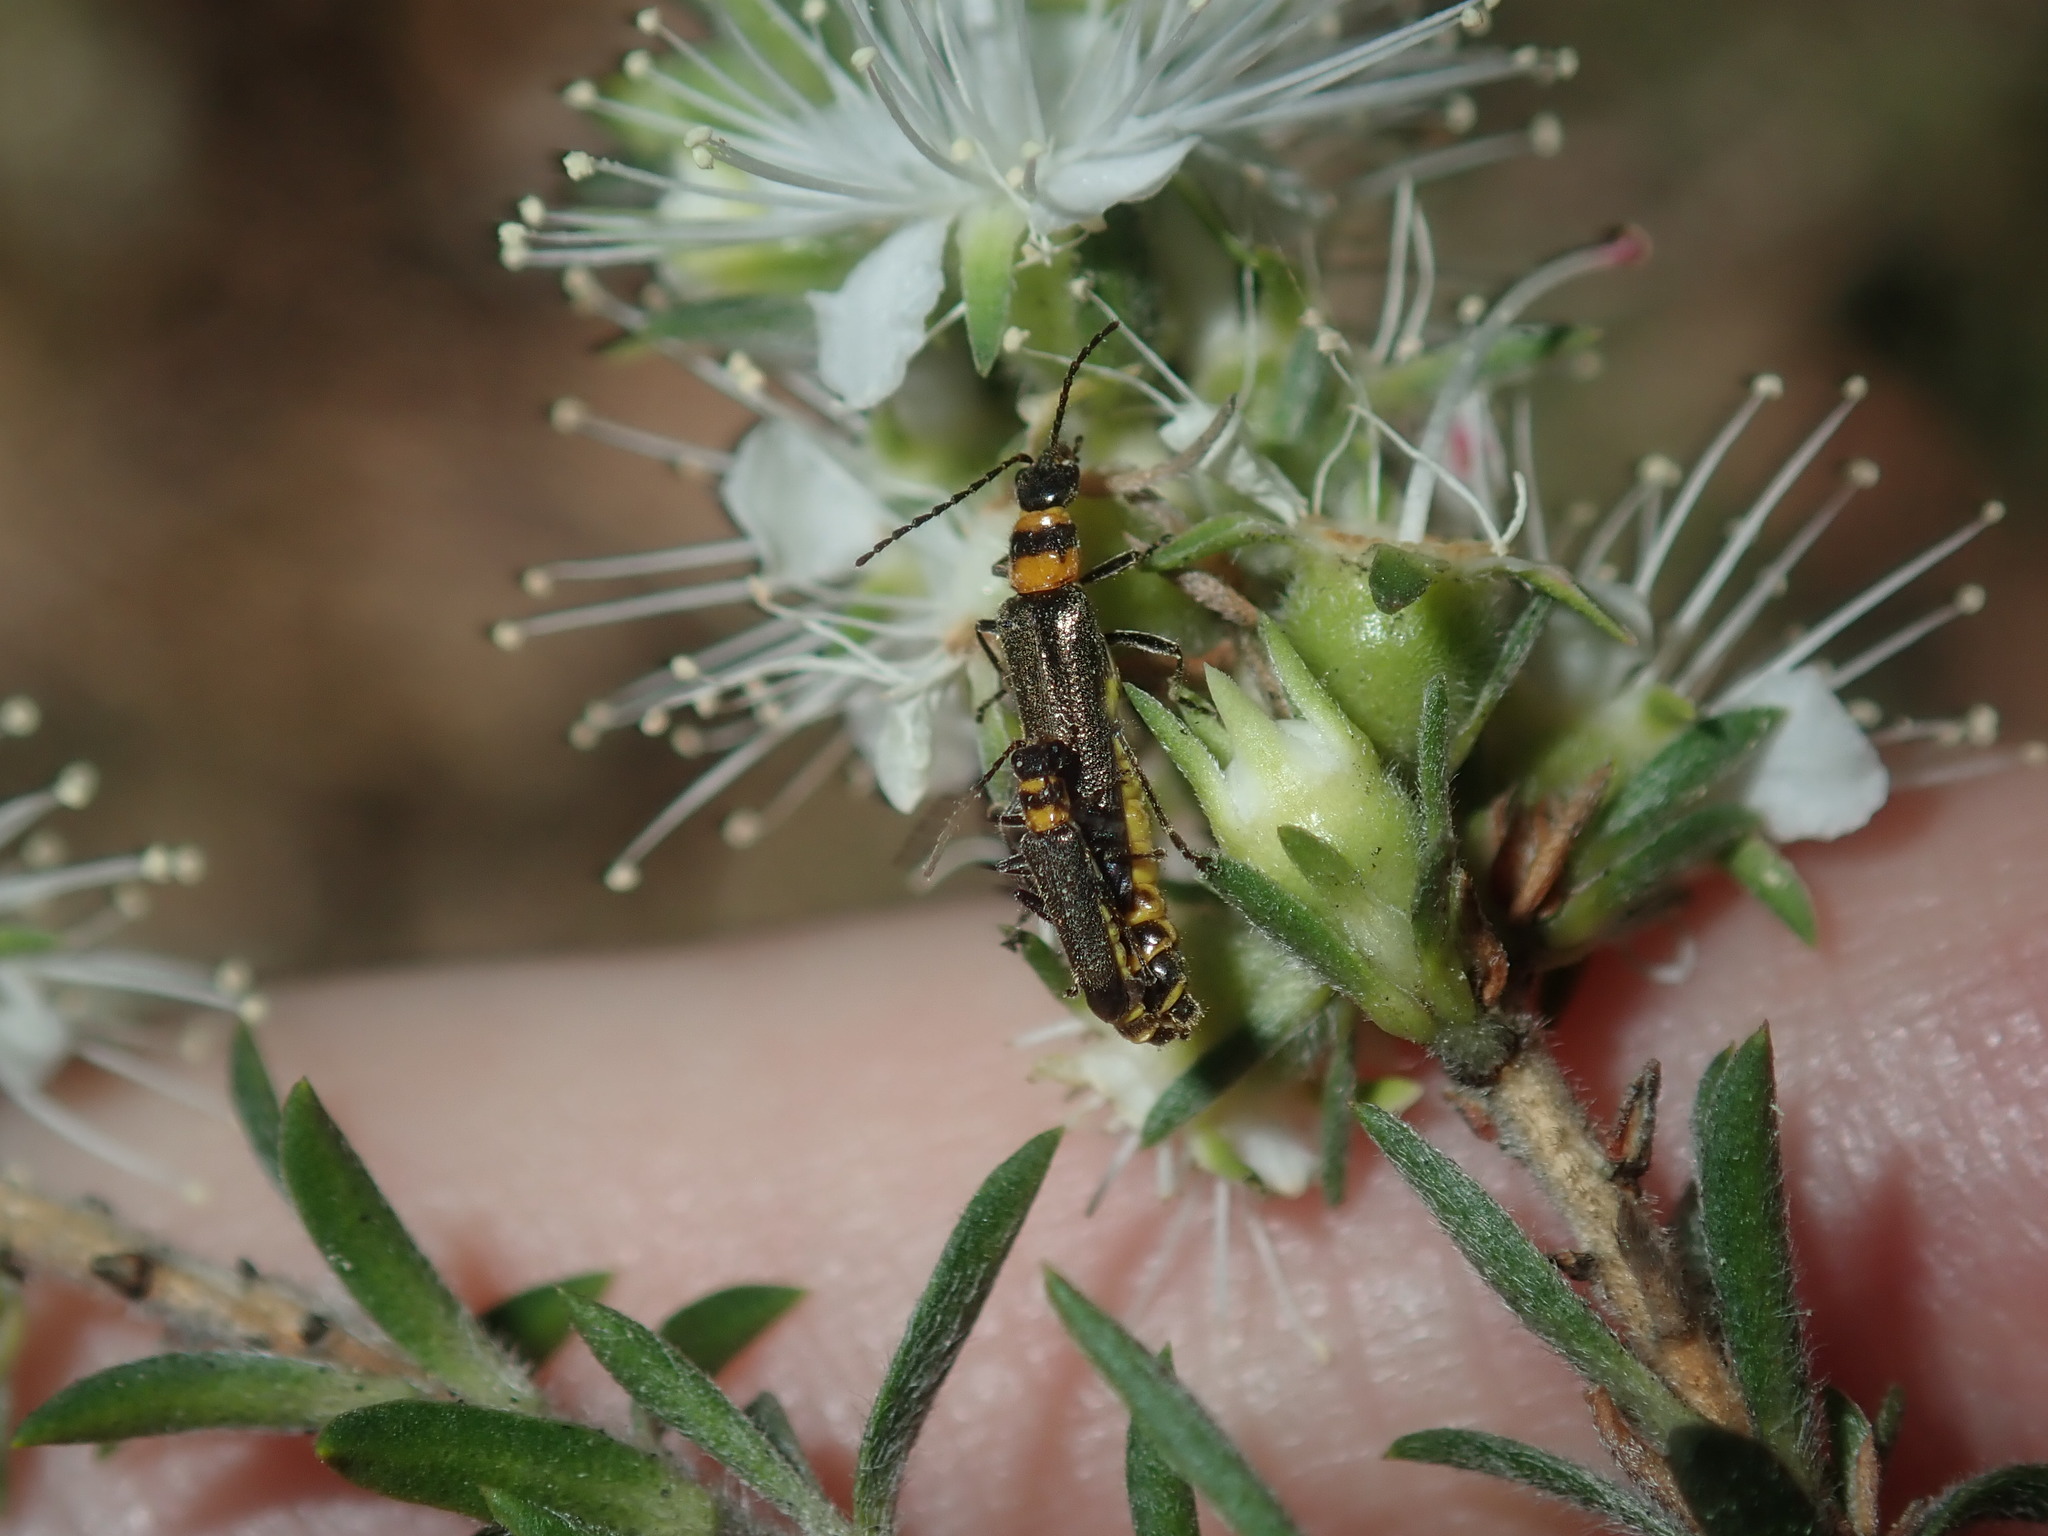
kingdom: Animalia
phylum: Arthropoda
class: Insecta
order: Coleoptera
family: Cantharidae
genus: Chauliognathus
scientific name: Chauliognathus
